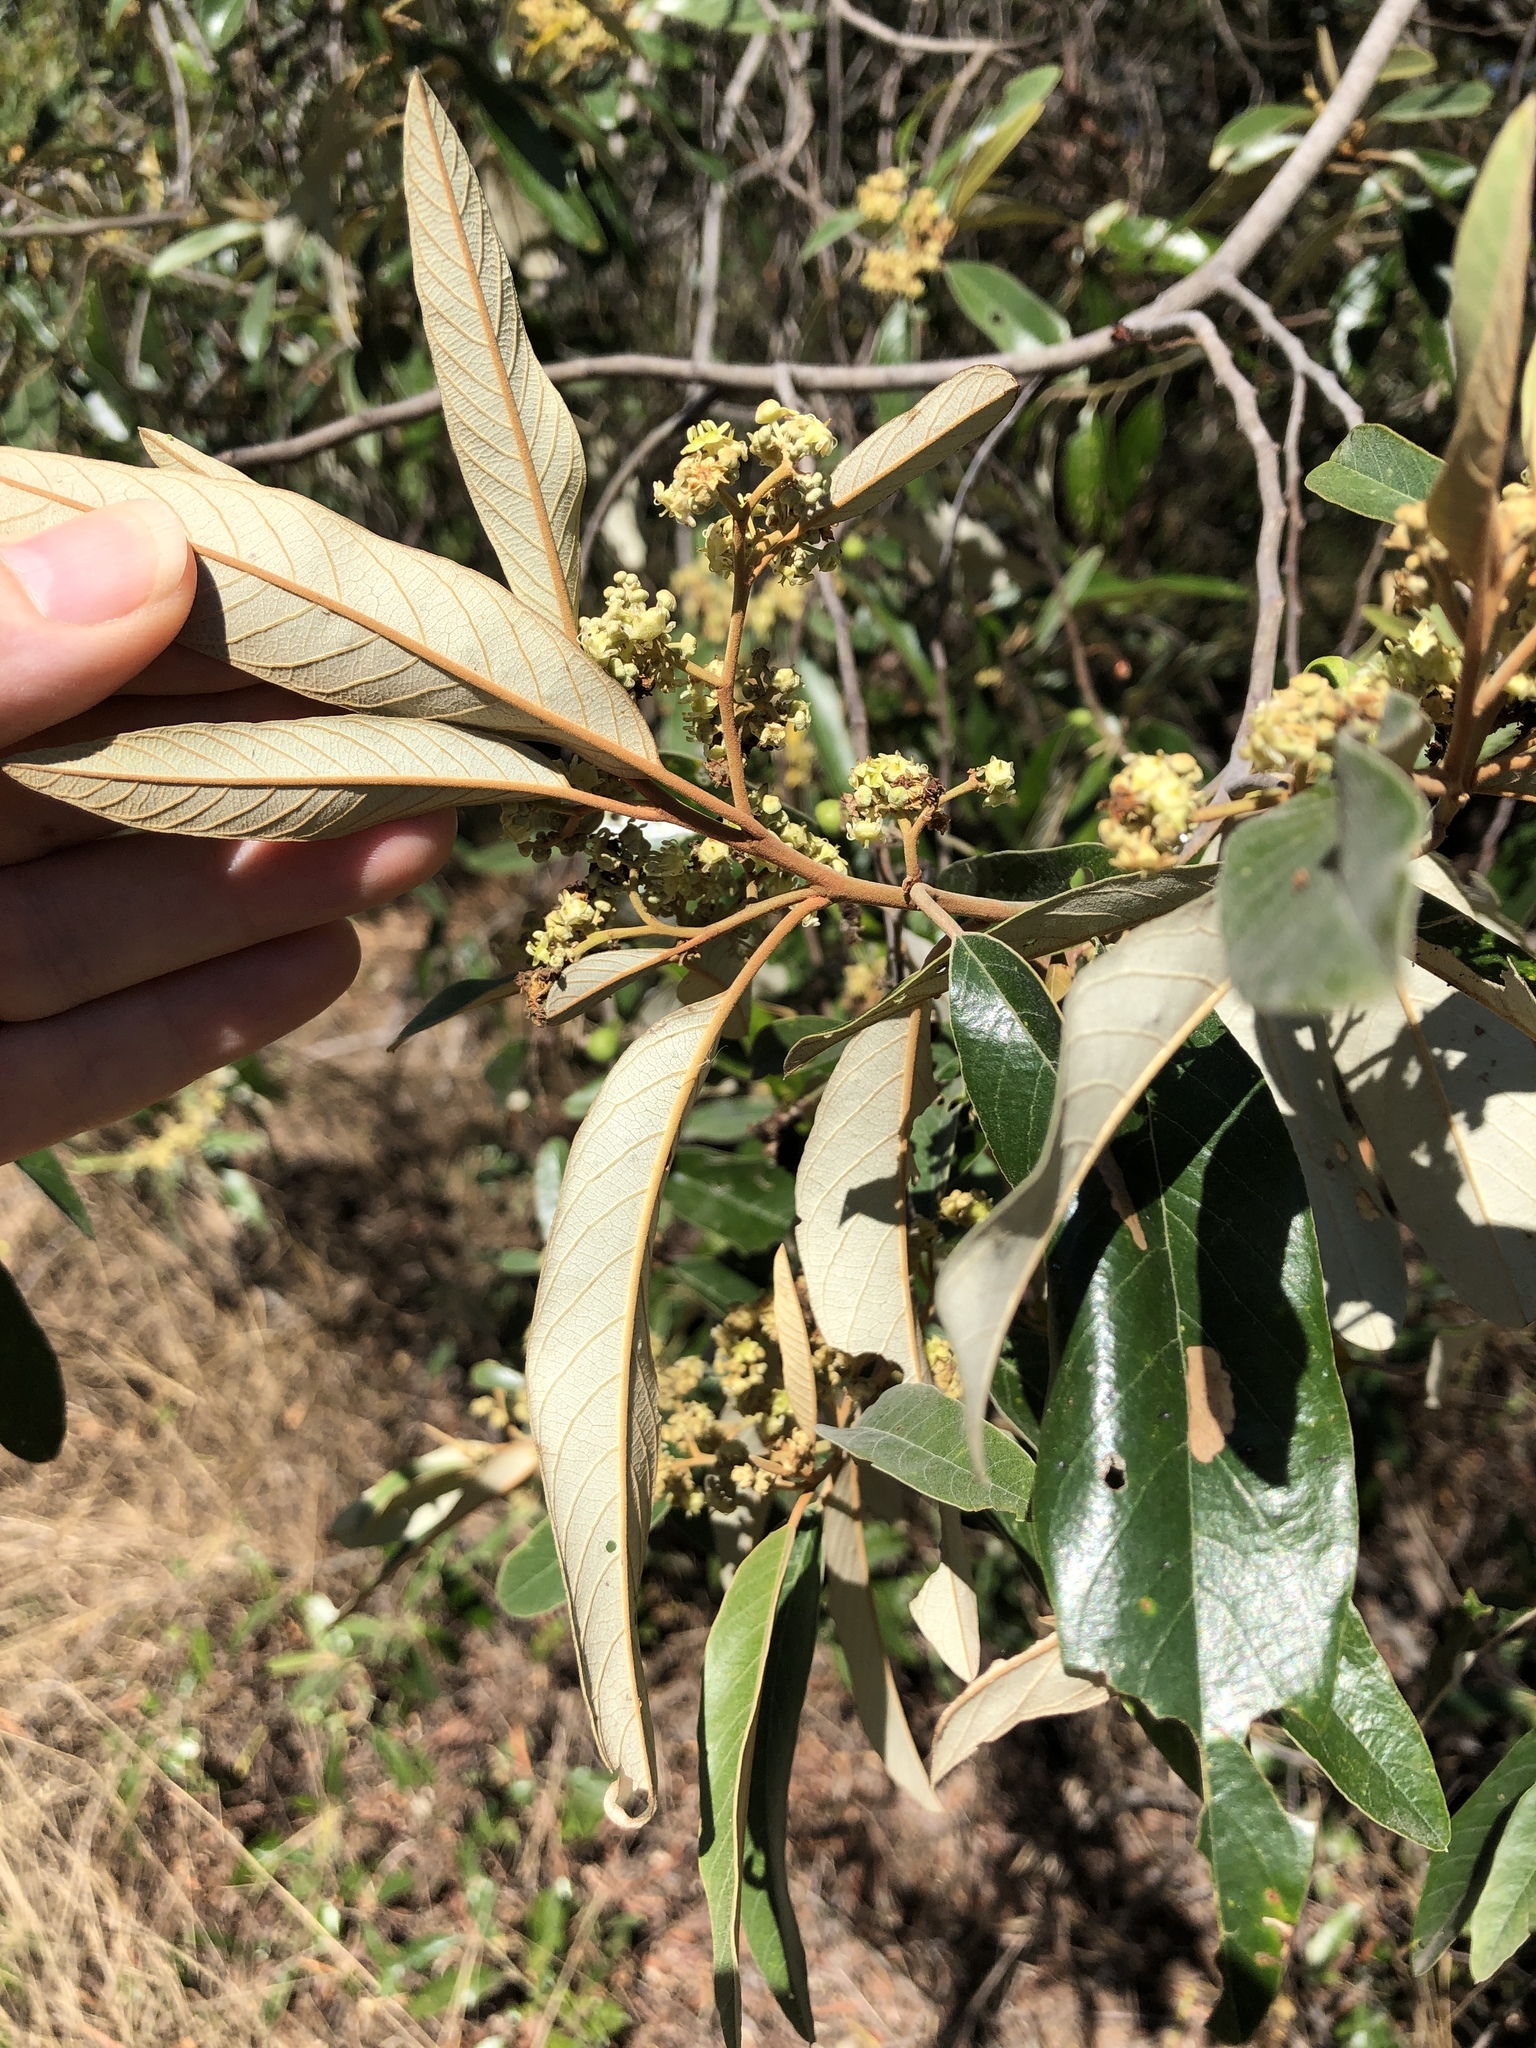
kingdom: Plantae
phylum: Tracheophyta
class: Magnoliopsida
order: Rosales
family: Rhamnaceae
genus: Alphitonia
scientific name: Alphitonia excelsa
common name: Red ash
